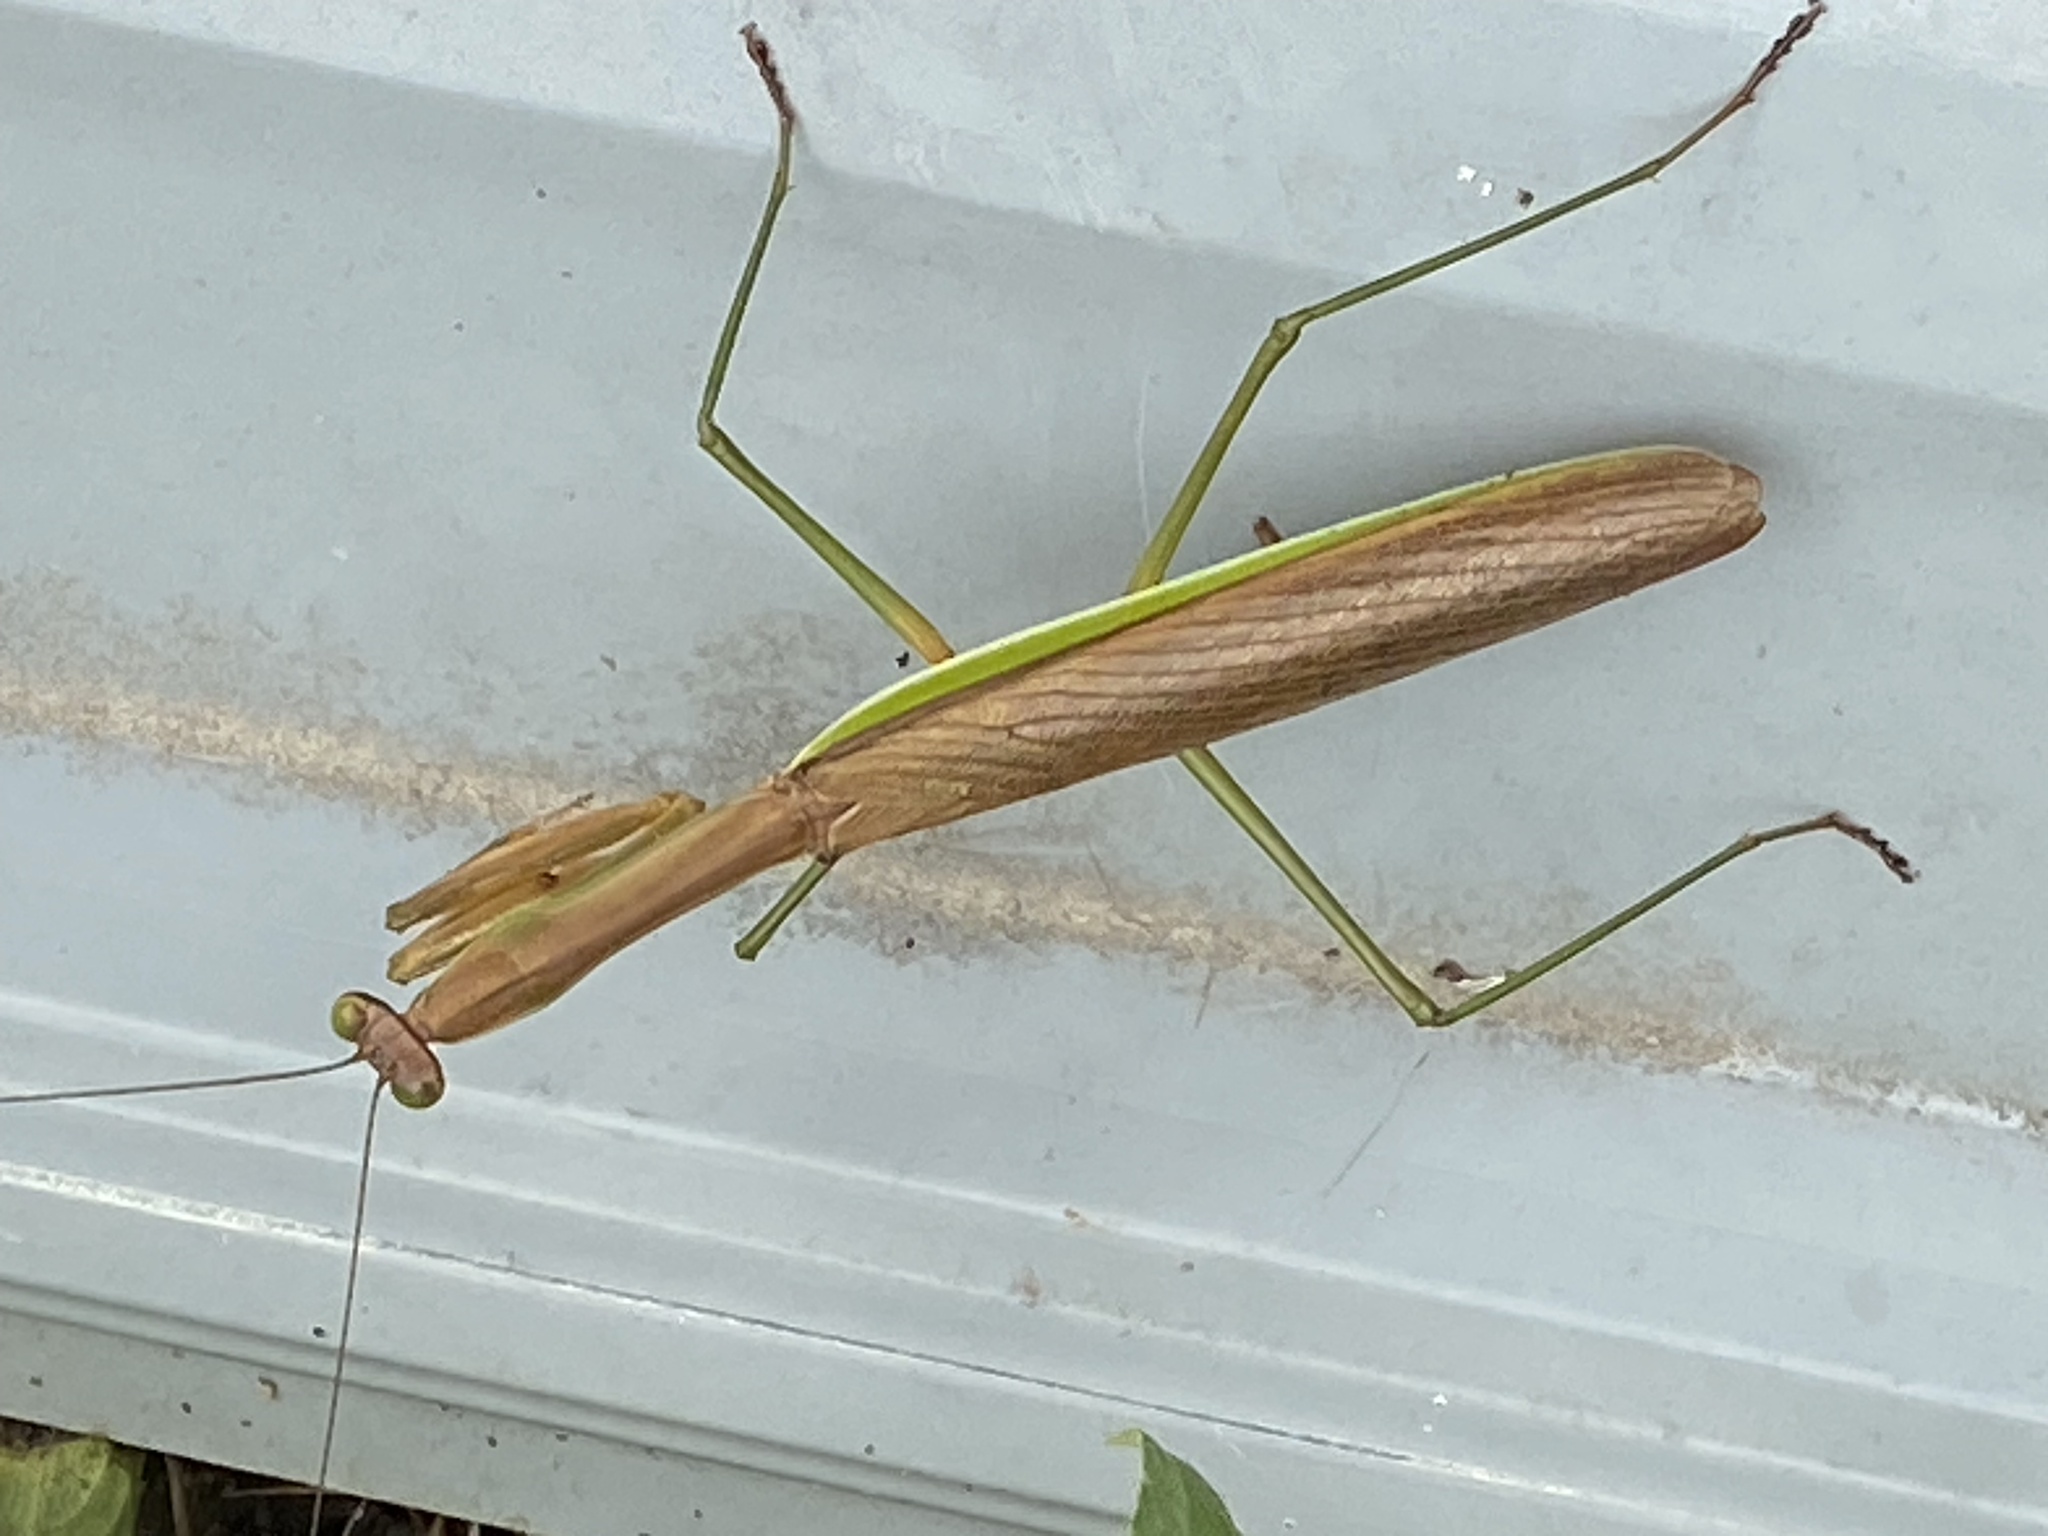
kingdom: Animalia
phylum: Arthropoda
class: Insecta
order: Mantodea
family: Mantidae
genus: Tenodera
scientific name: Tenodera sinensis
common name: Chinese mantis
